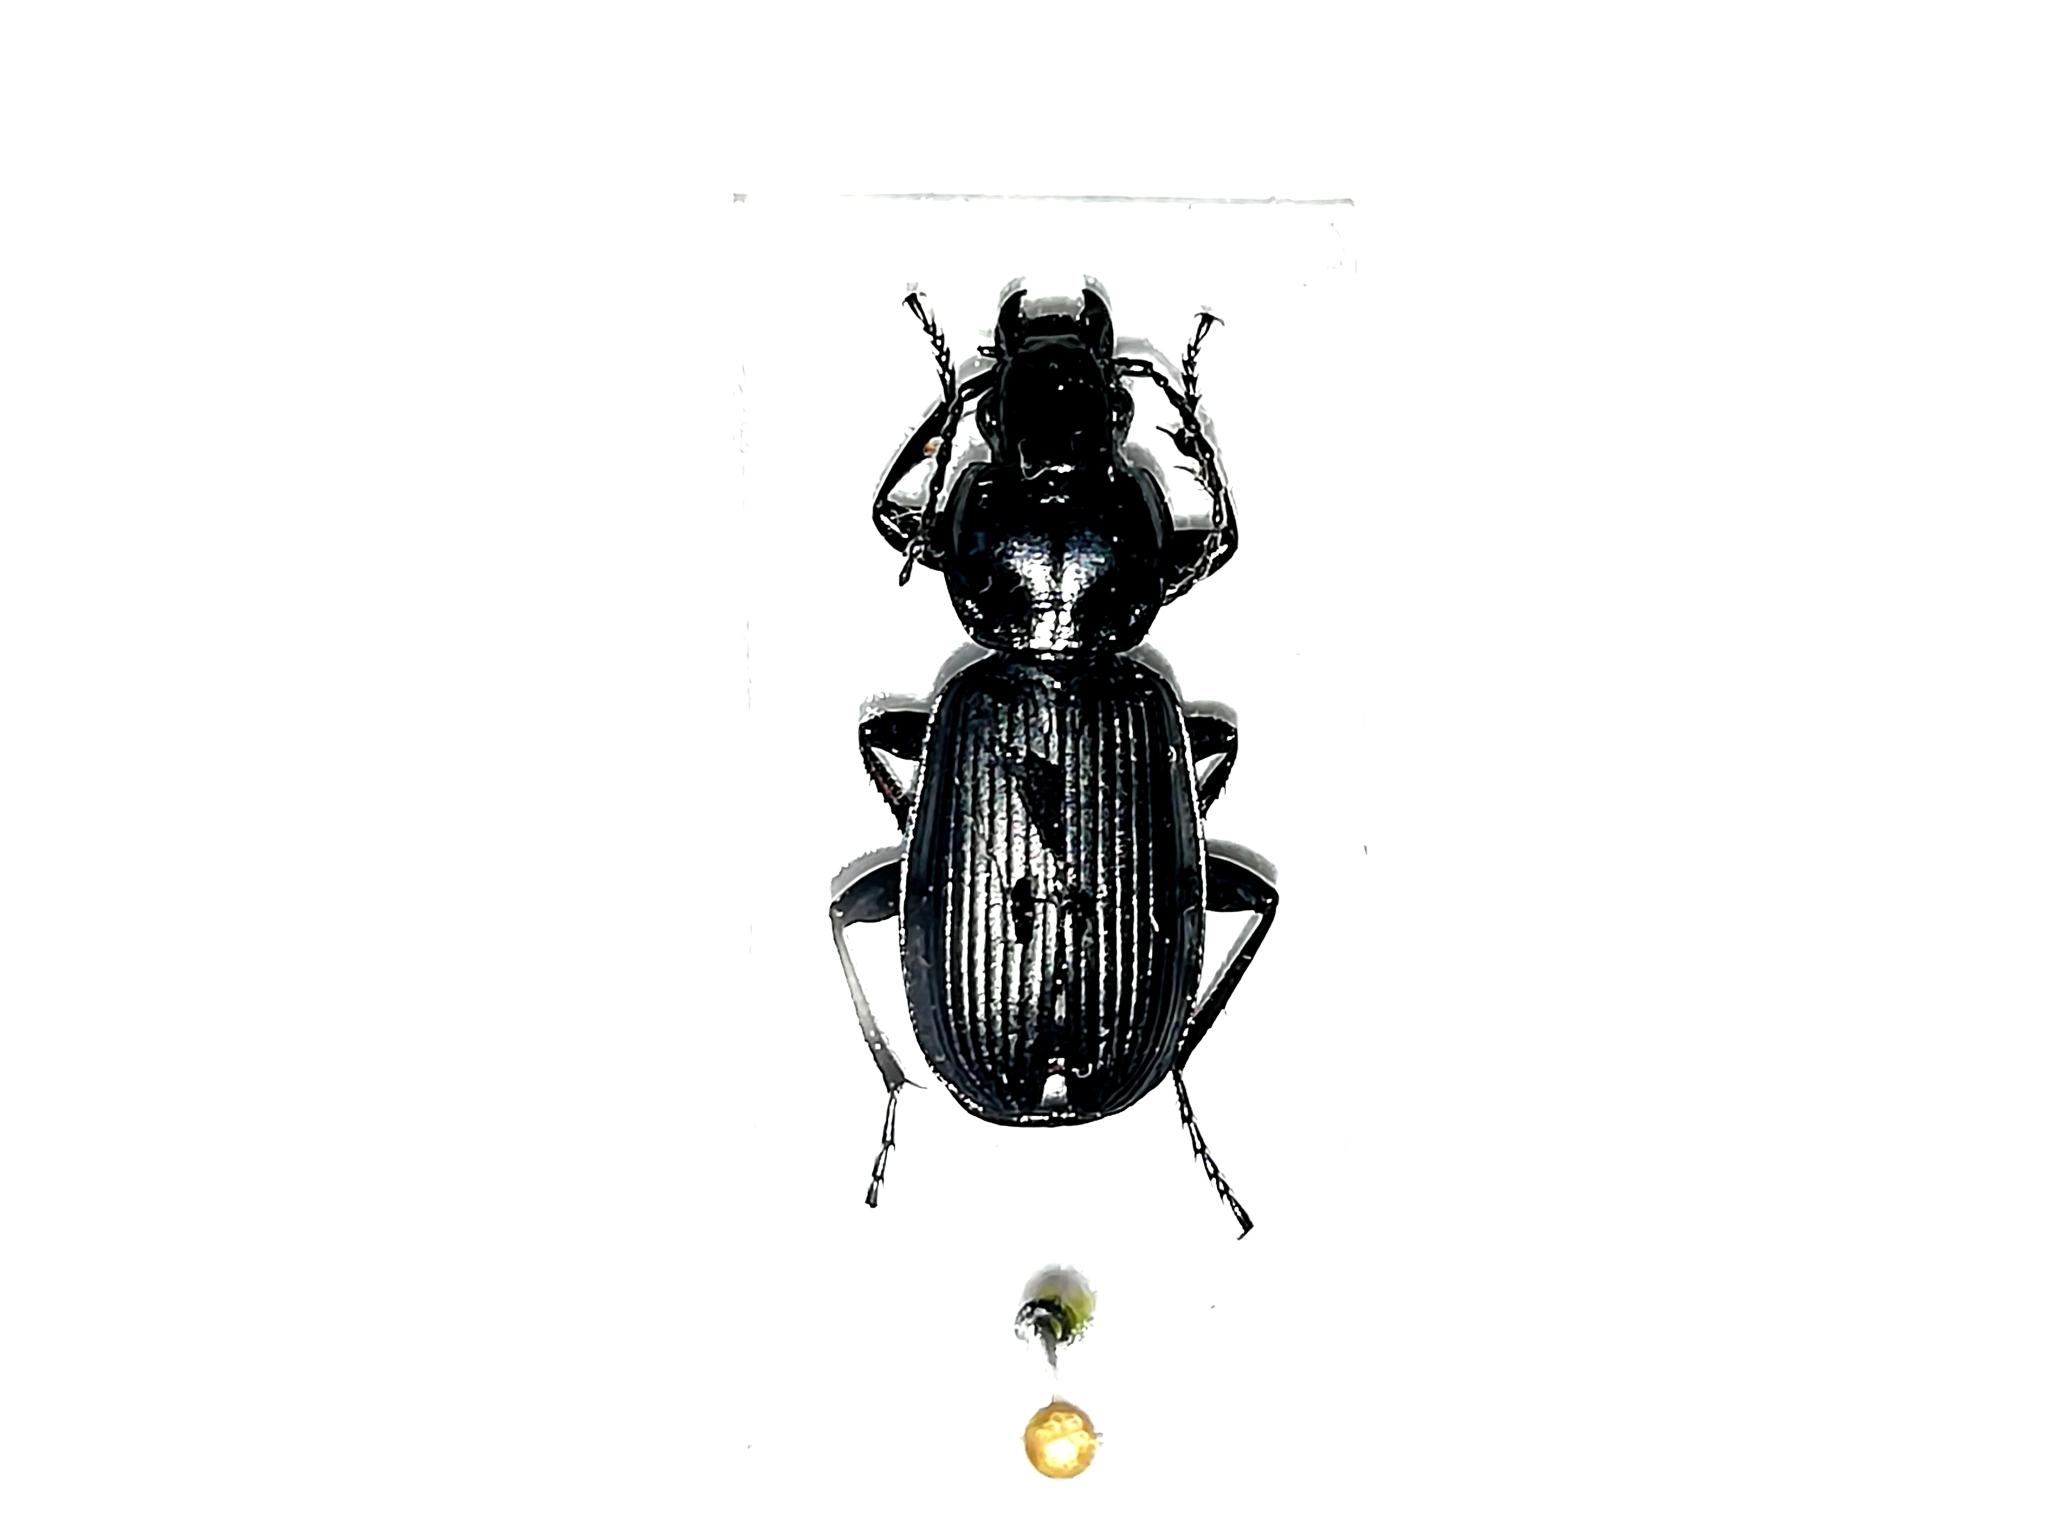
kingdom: Animalia
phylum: Arthropoda
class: Insecta
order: Coleoptera
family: Carabidae
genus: Pterostichus
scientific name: Pterostichus melanarius
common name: European dark harp ground beetle
